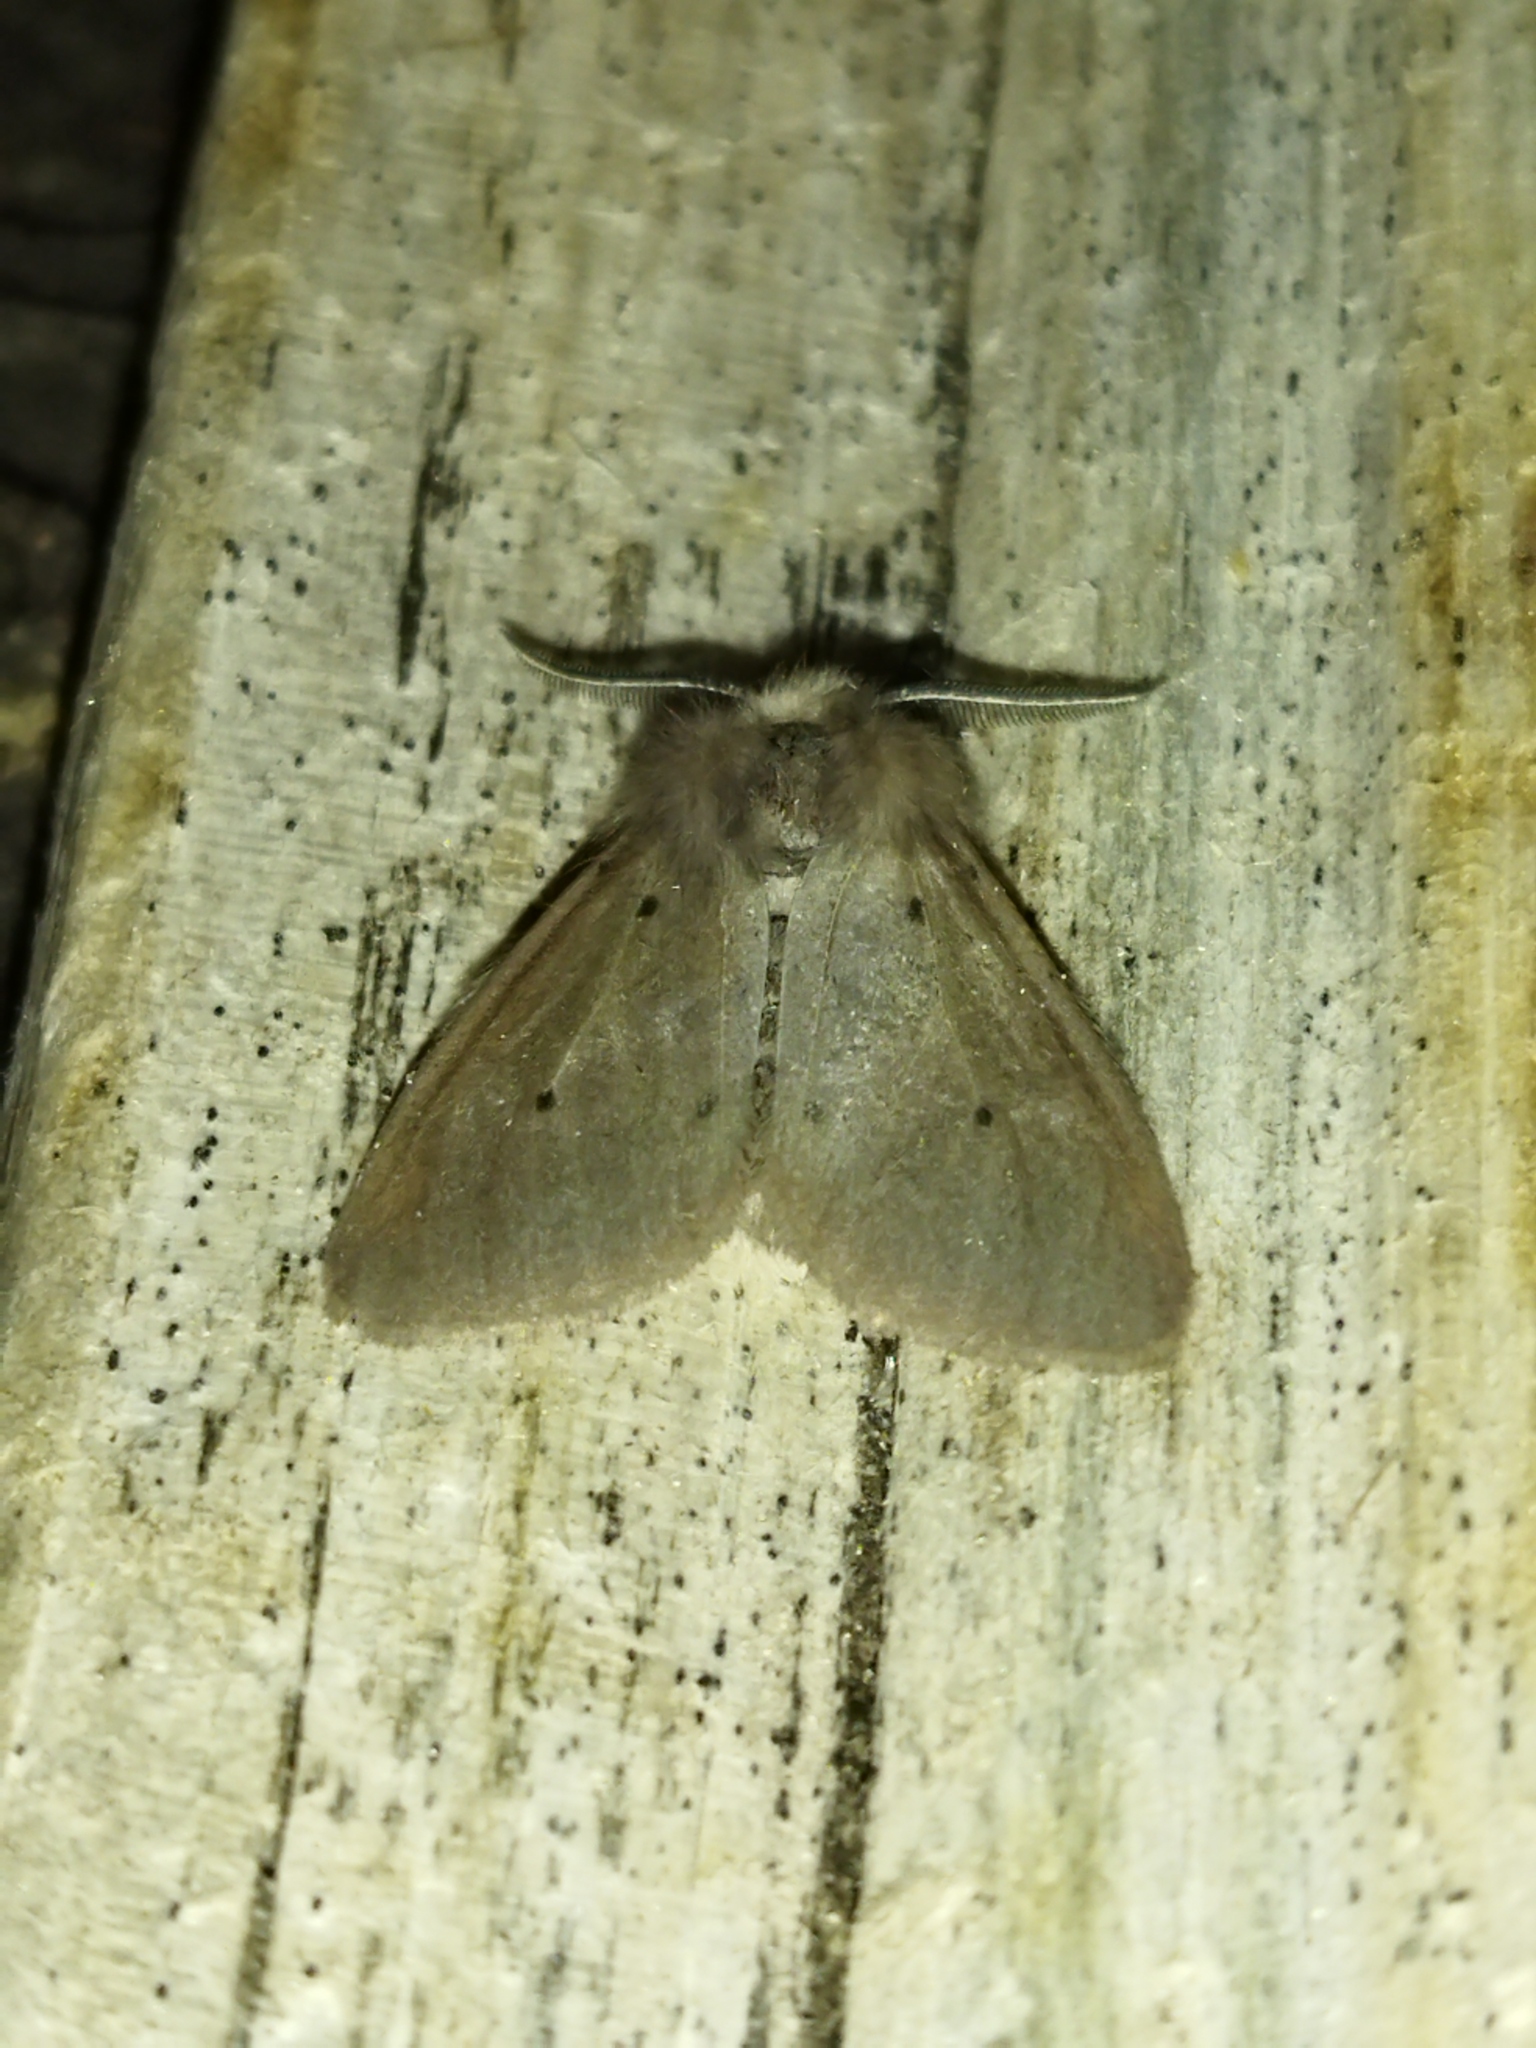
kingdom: Animalia
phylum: Arthropoda
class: Insecta
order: Lepidoptera
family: Erebidae
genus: Diaphora
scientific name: Diaphora mendica
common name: Muslin moth
